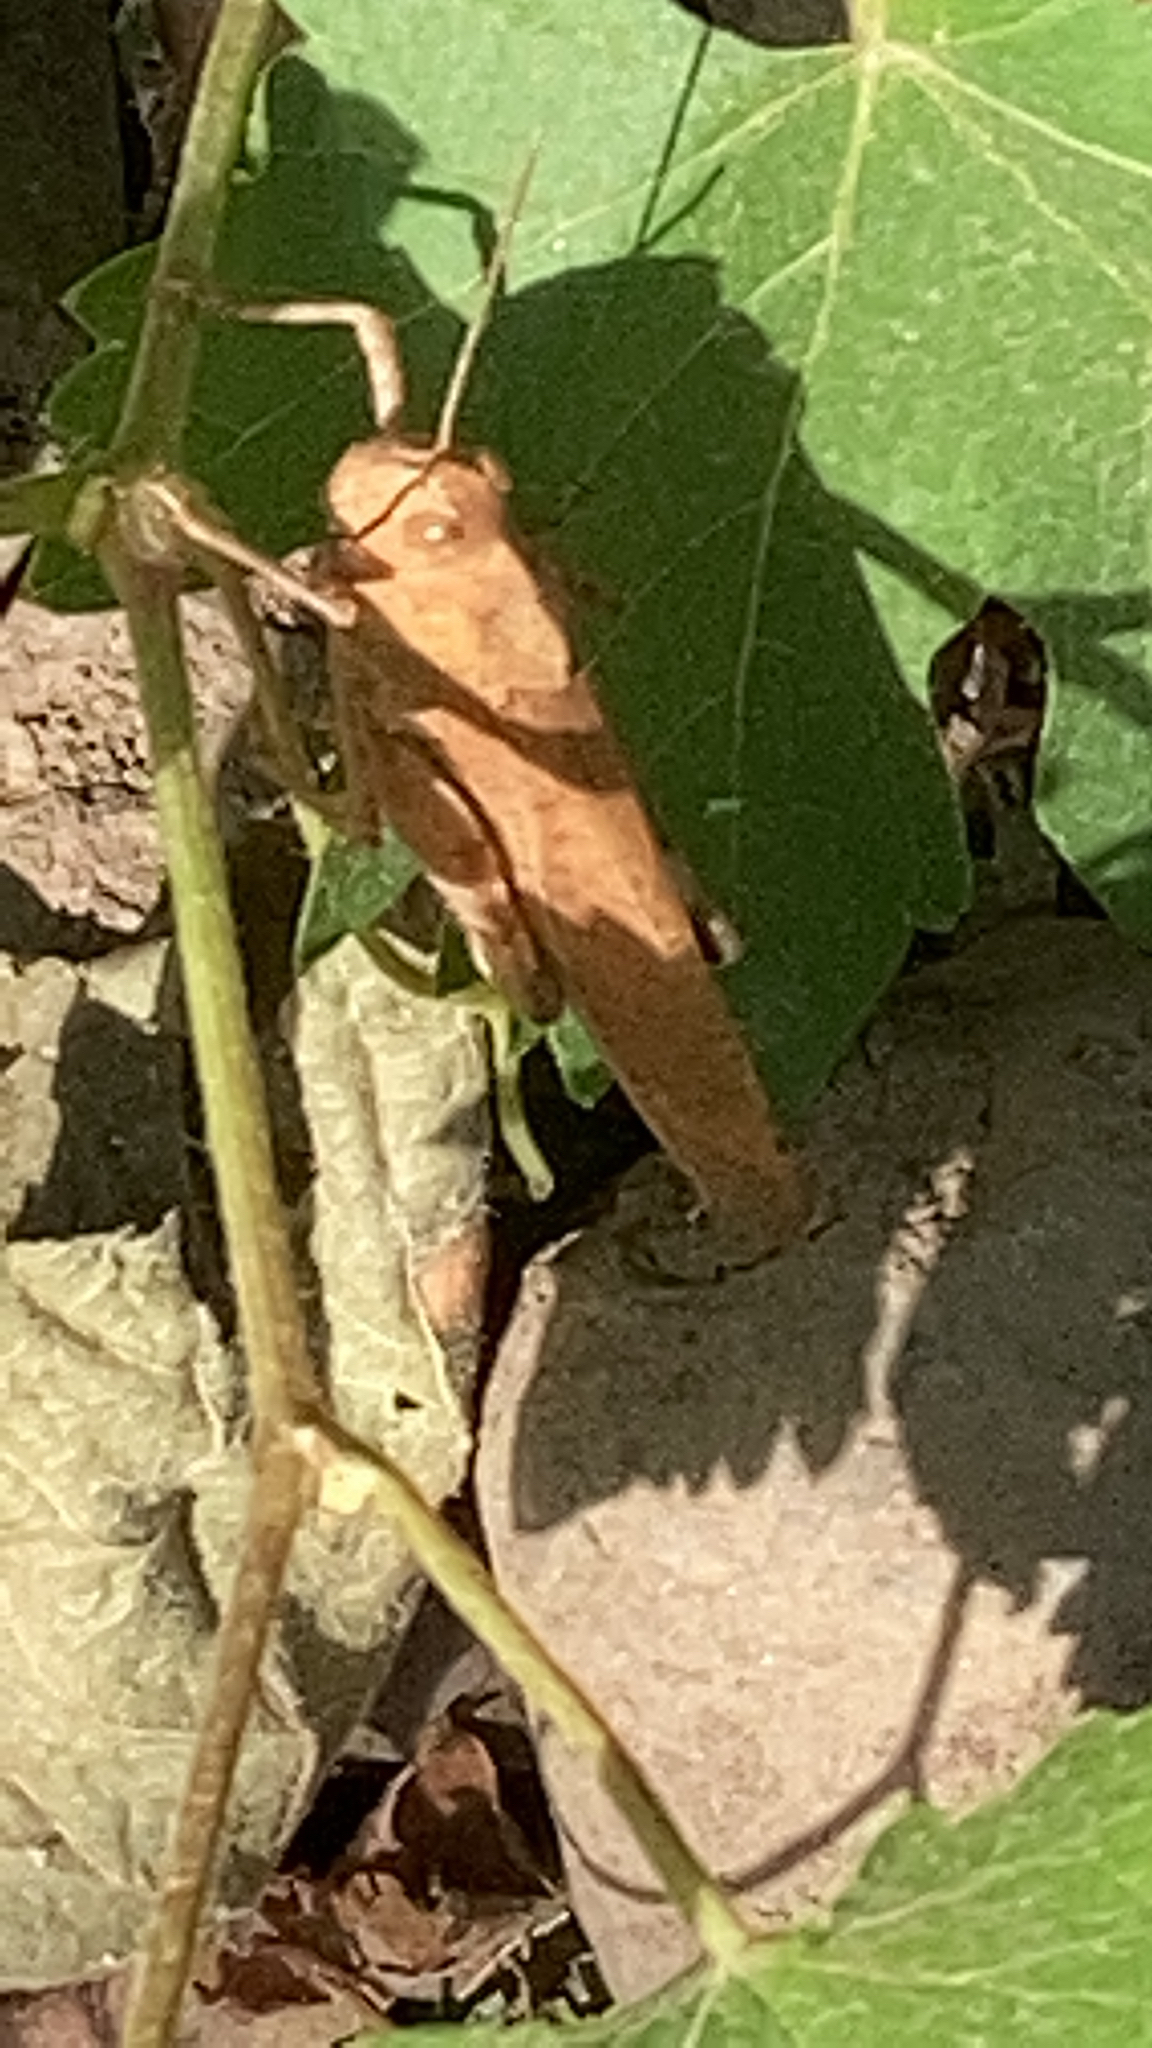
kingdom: Animalia
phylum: Arthropoda
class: Insecta
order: Orthoptera
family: Acrididae
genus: Dissosteira
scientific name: Dissosteira carolina
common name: Carolina grasshopper
